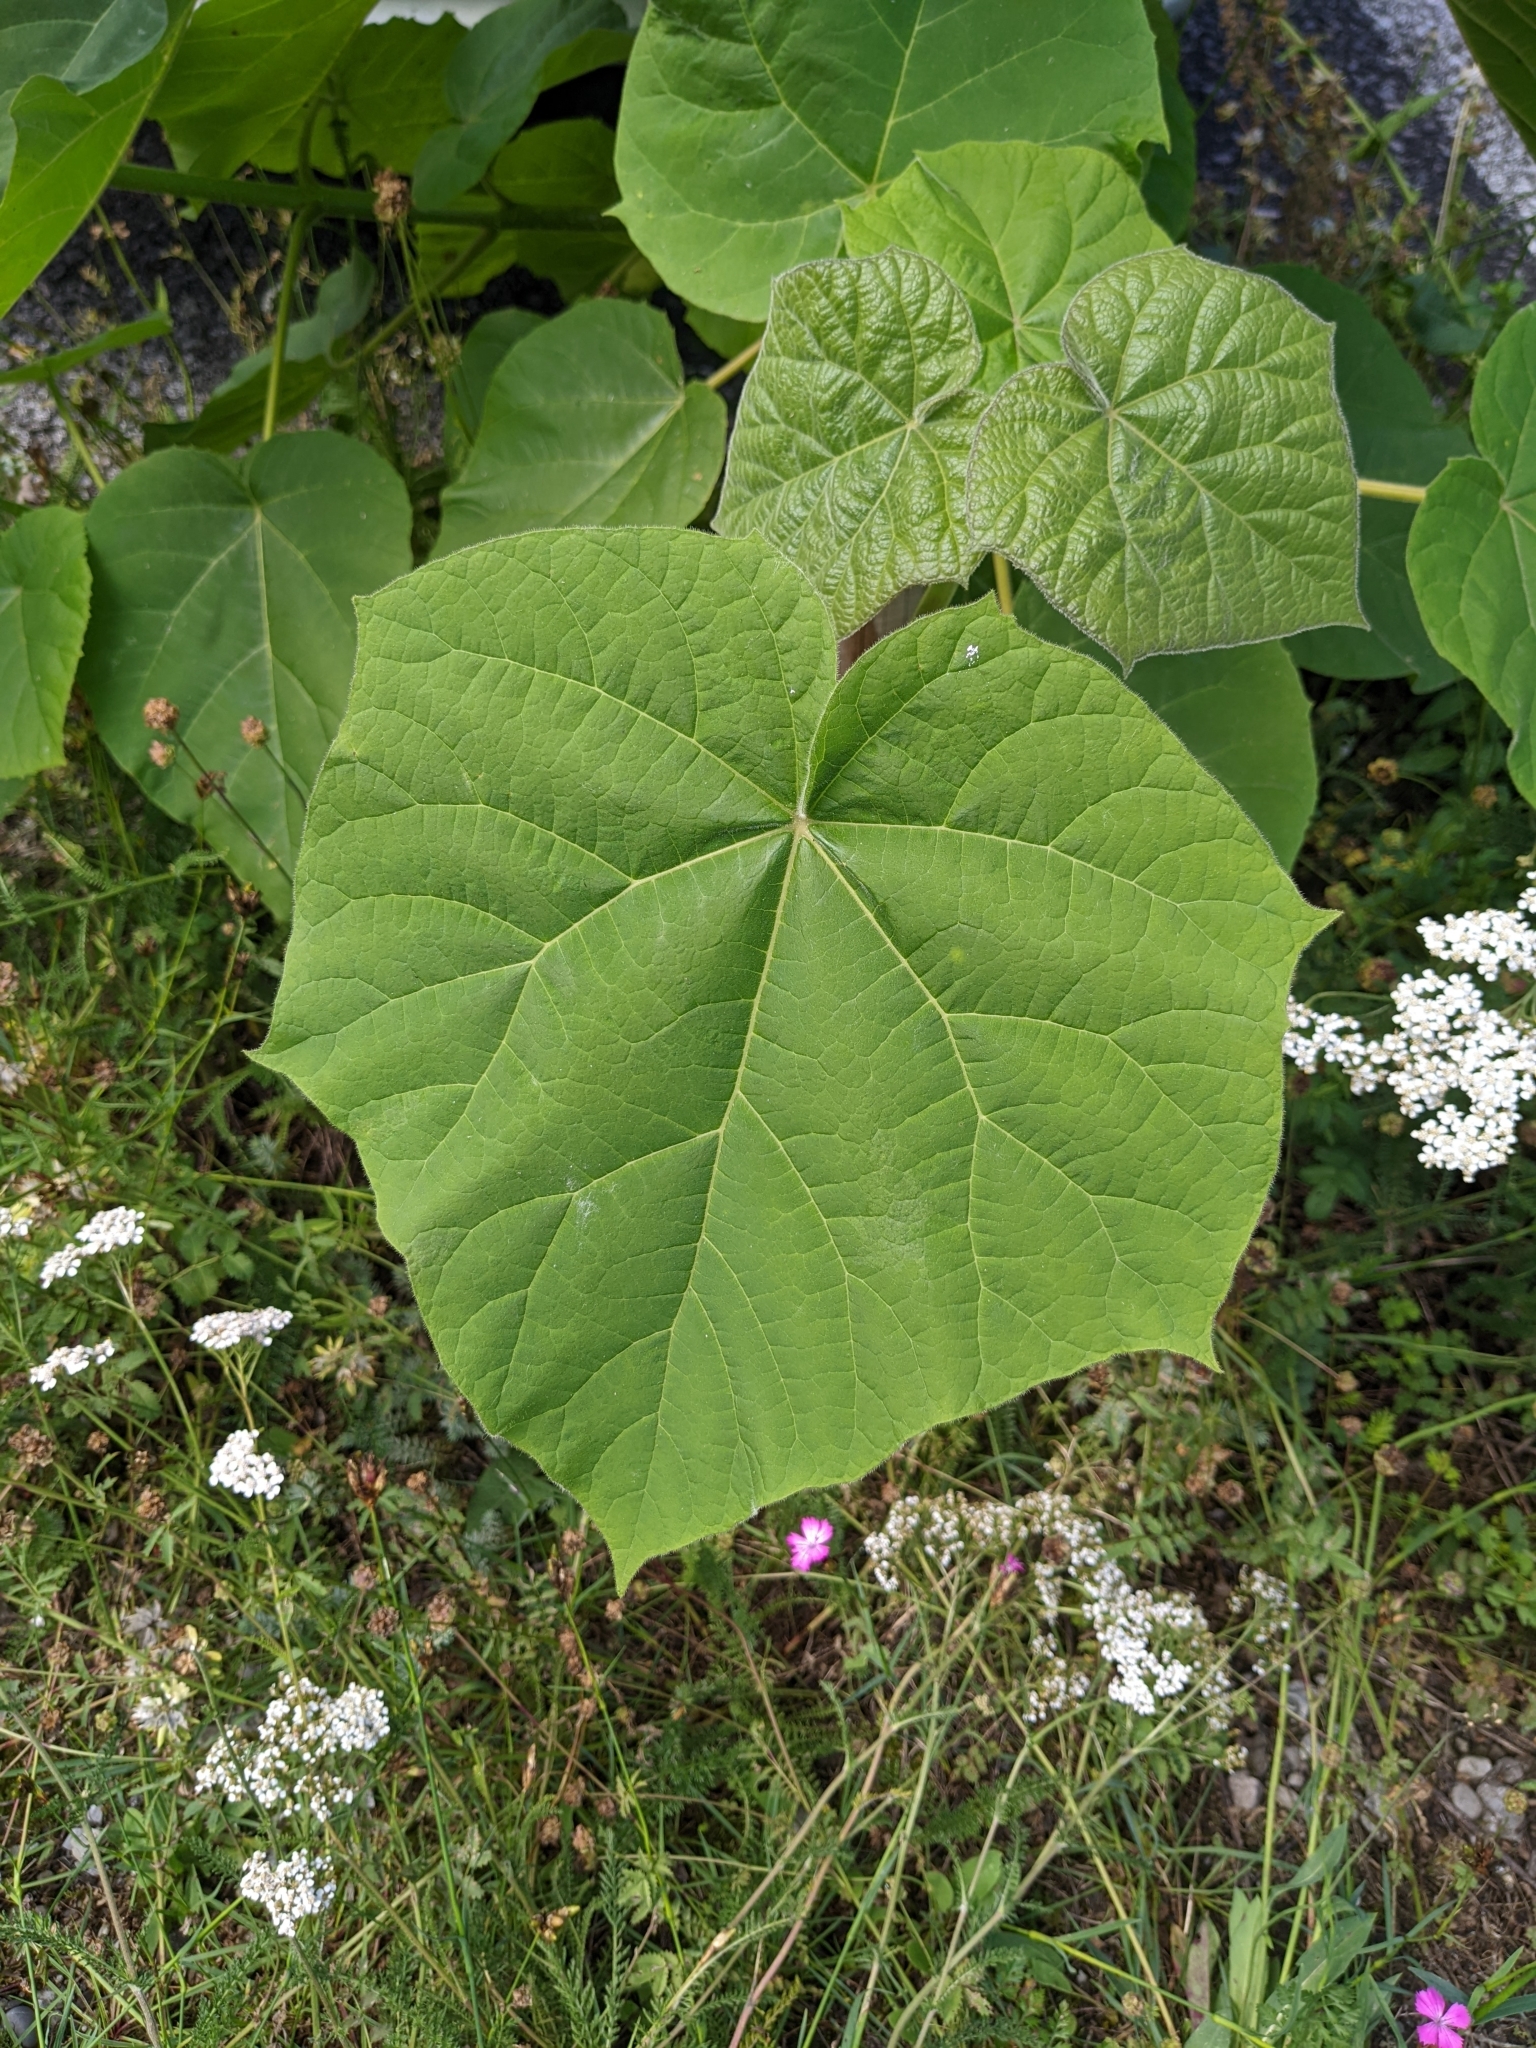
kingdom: Plantae
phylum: Tracheophyta
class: Magnoliopsida
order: Lamiales
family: Paulowniaceae
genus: Paulownia
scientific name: Paulownia tomentosa
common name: Foxglove-tree
